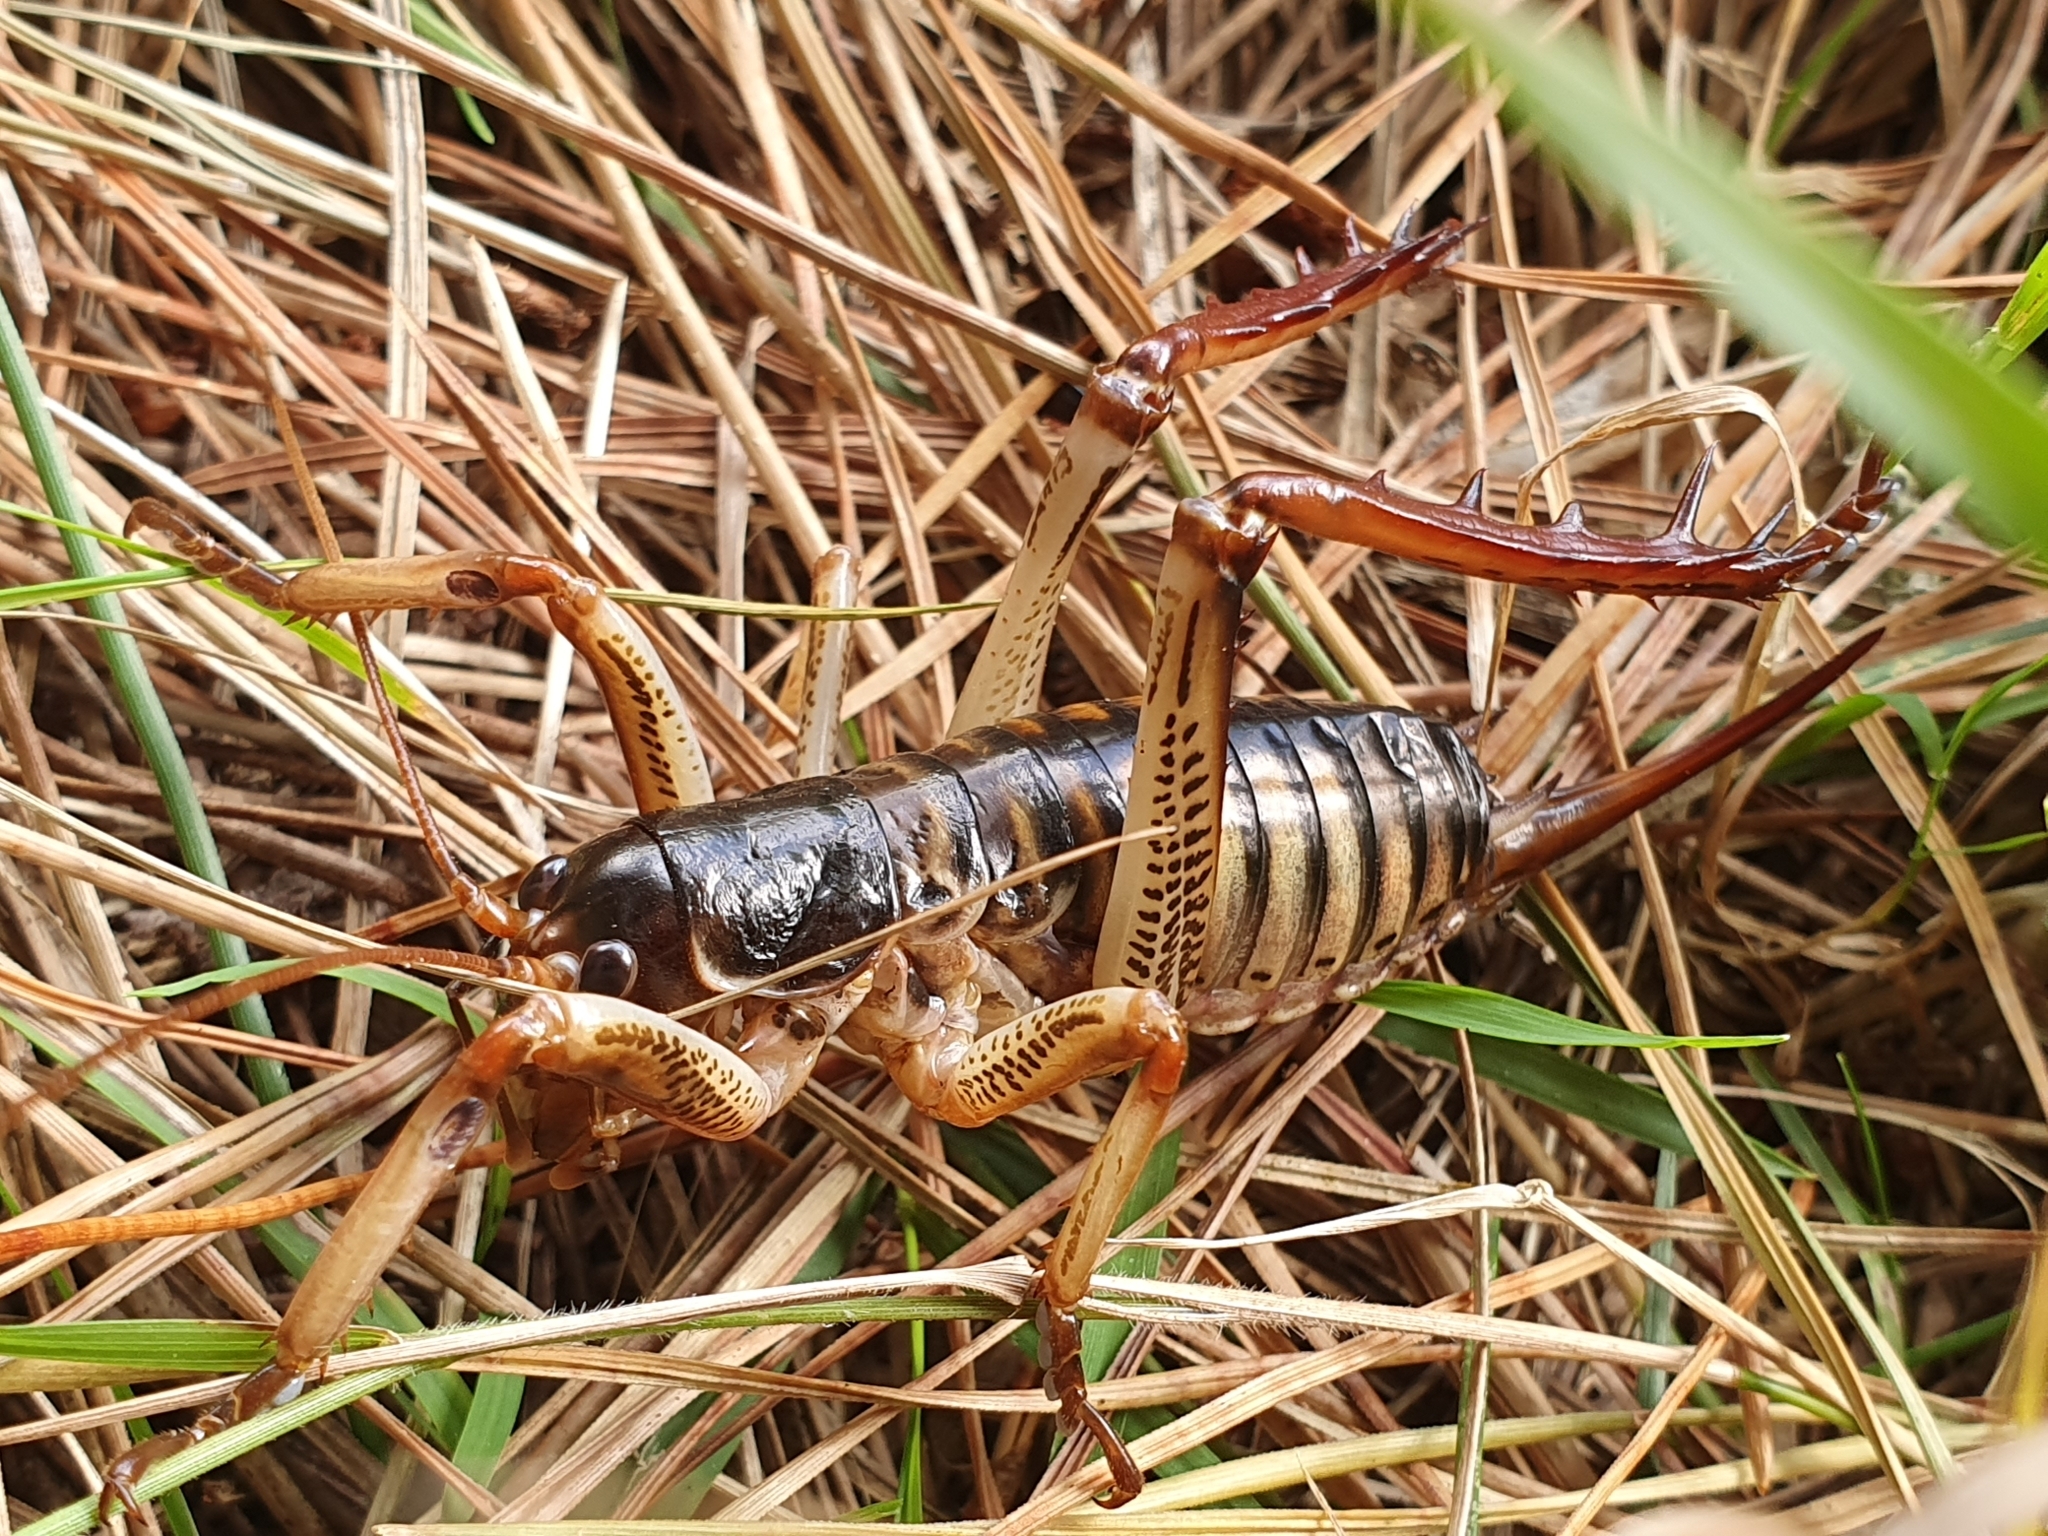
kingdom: Animalia
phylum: Arthropoda
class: Insecta
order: Orthoptera
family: Anostostomatidae
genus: Hemideina
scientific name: Hemideina crassidens
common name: Wellington tree weta
